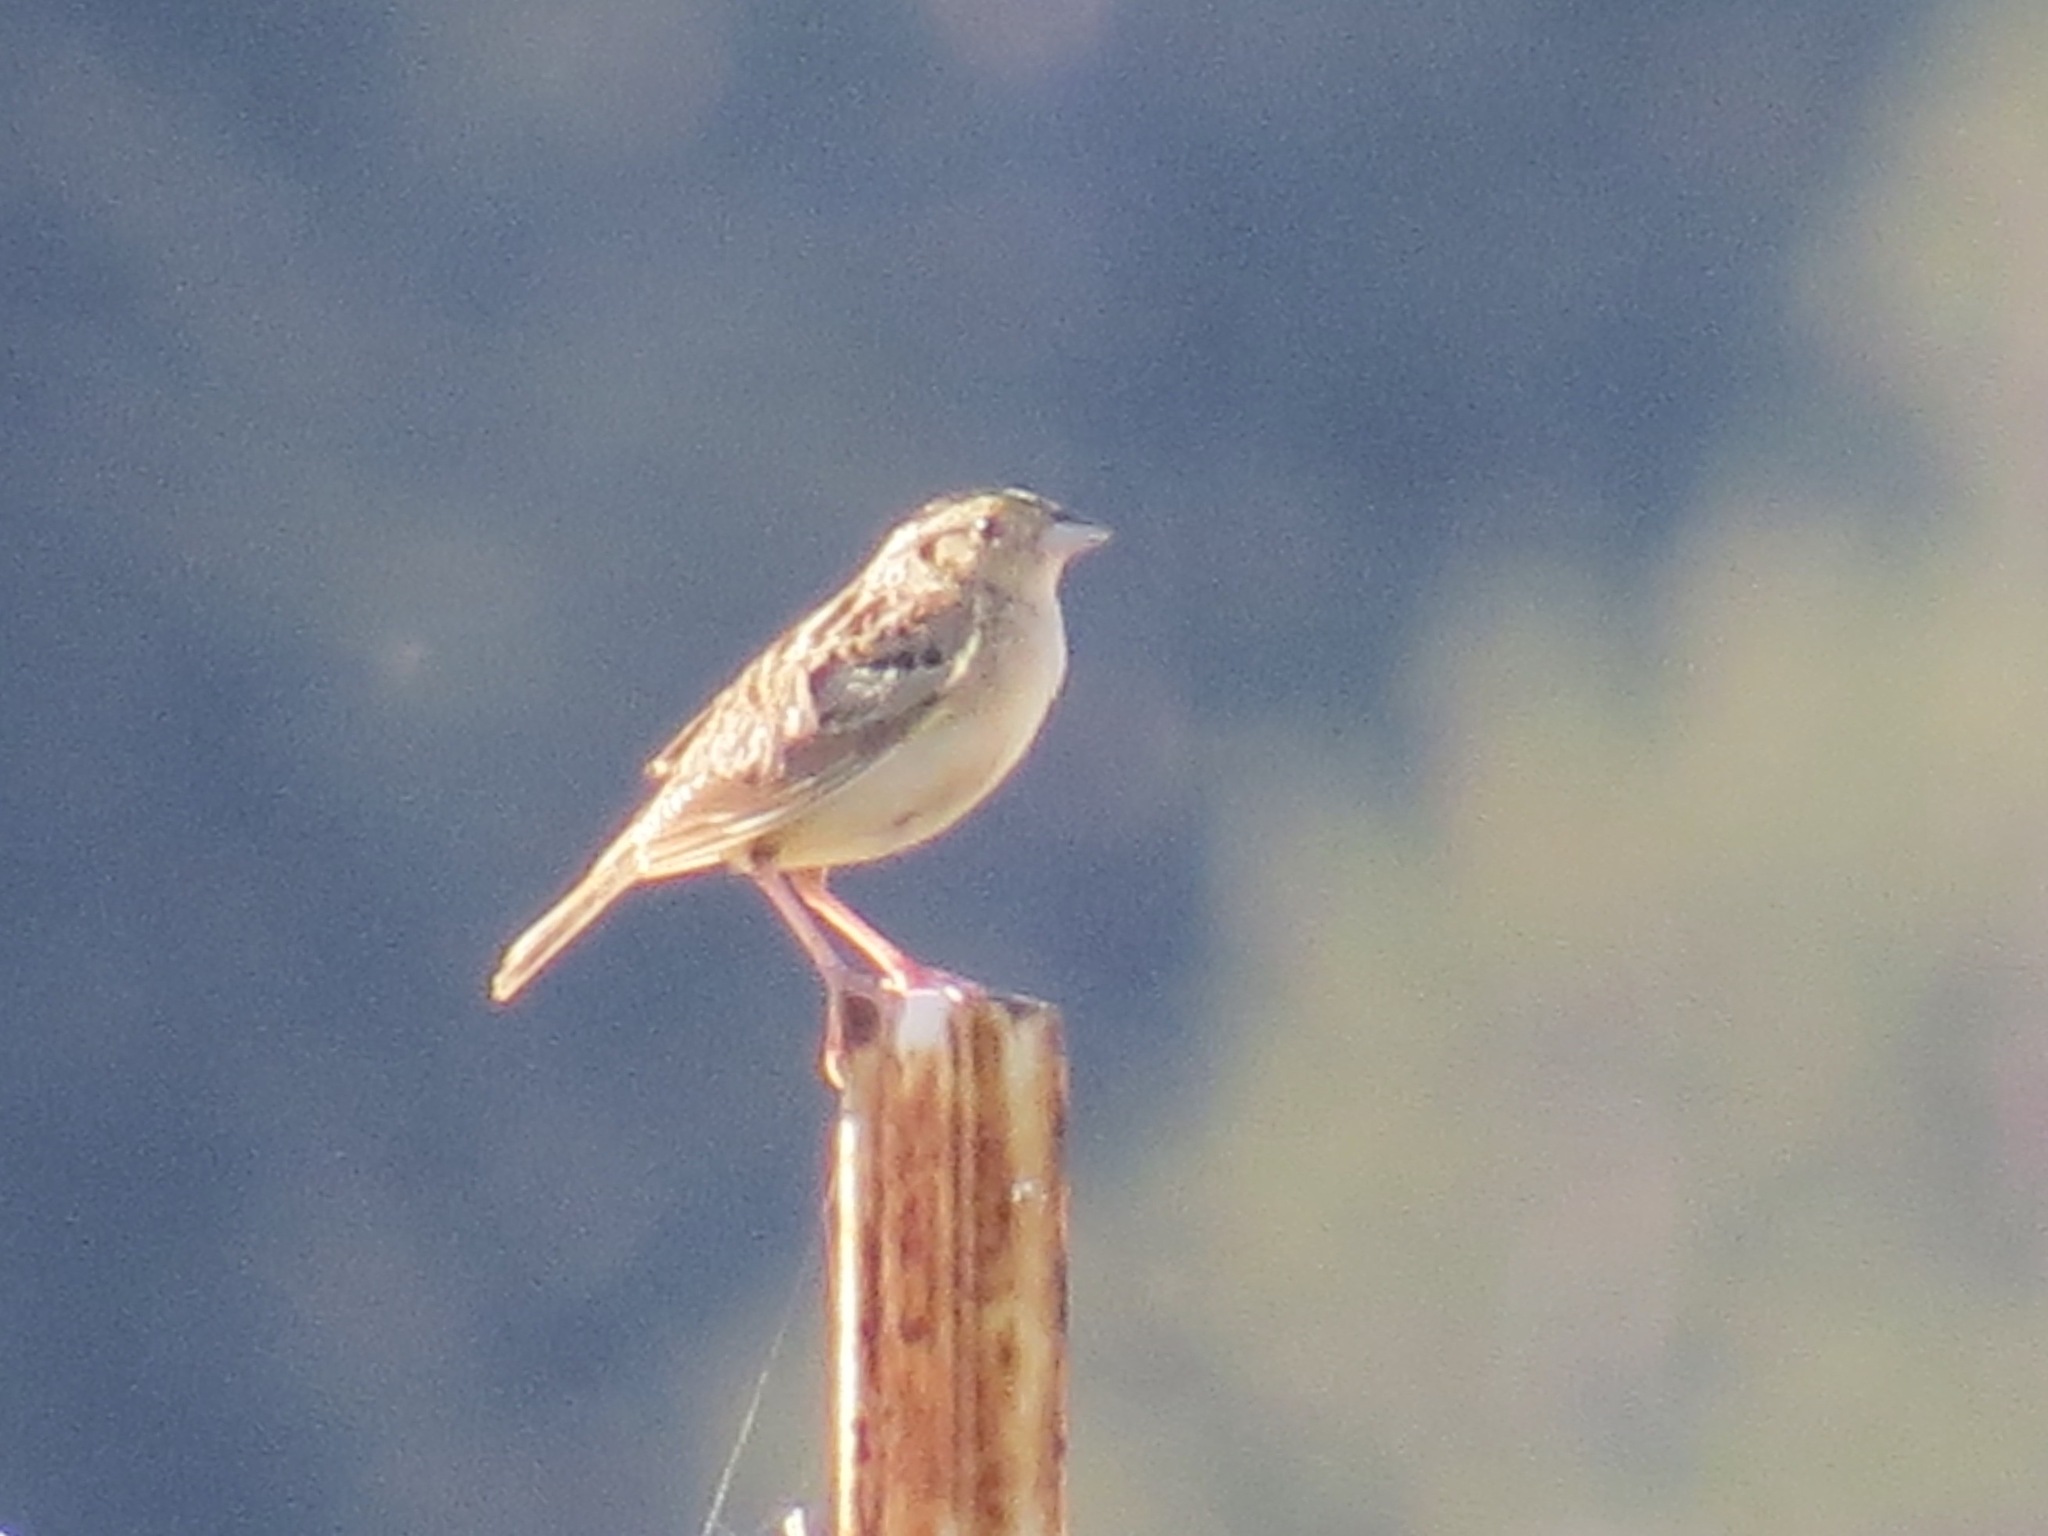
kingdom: Animalia
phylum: Chordata
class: Aves
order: Passeriformes
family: Passerellidae
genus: Ammodramus
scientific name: Ammodramus savannarum
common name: Grasshopper sparrow
